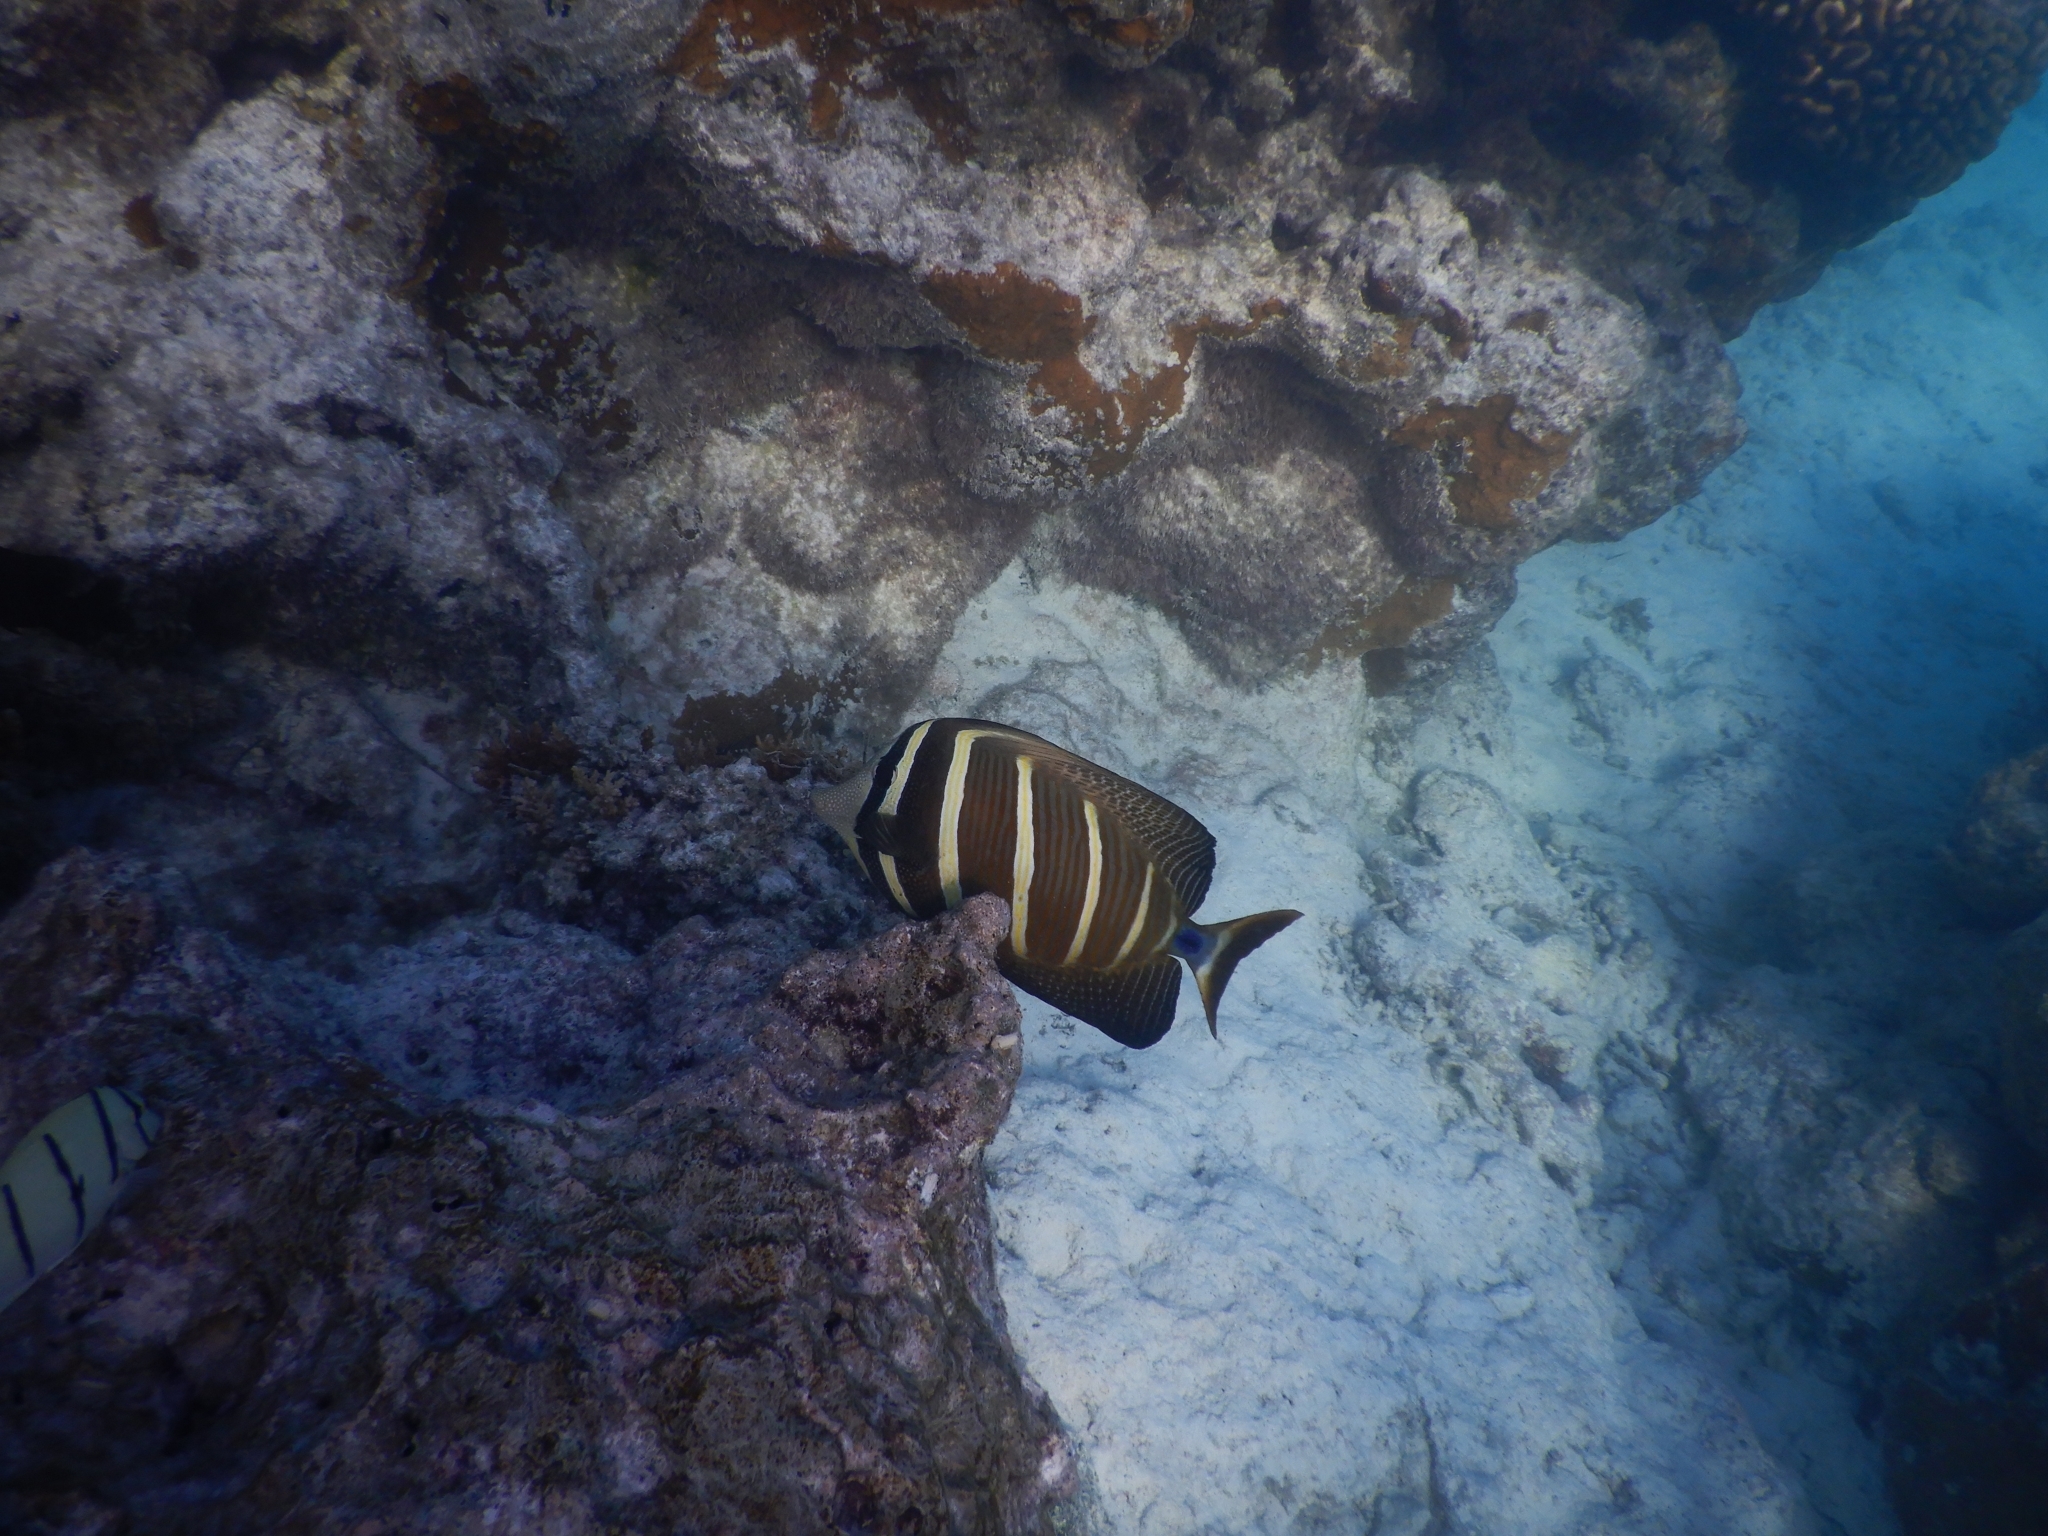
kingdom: Animalia
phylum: Chordata
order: Perciformes
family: Acanthuridae
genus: Zebrasoma
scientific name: Zebrasoma veliferum
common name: Sailfin surgeonfish
